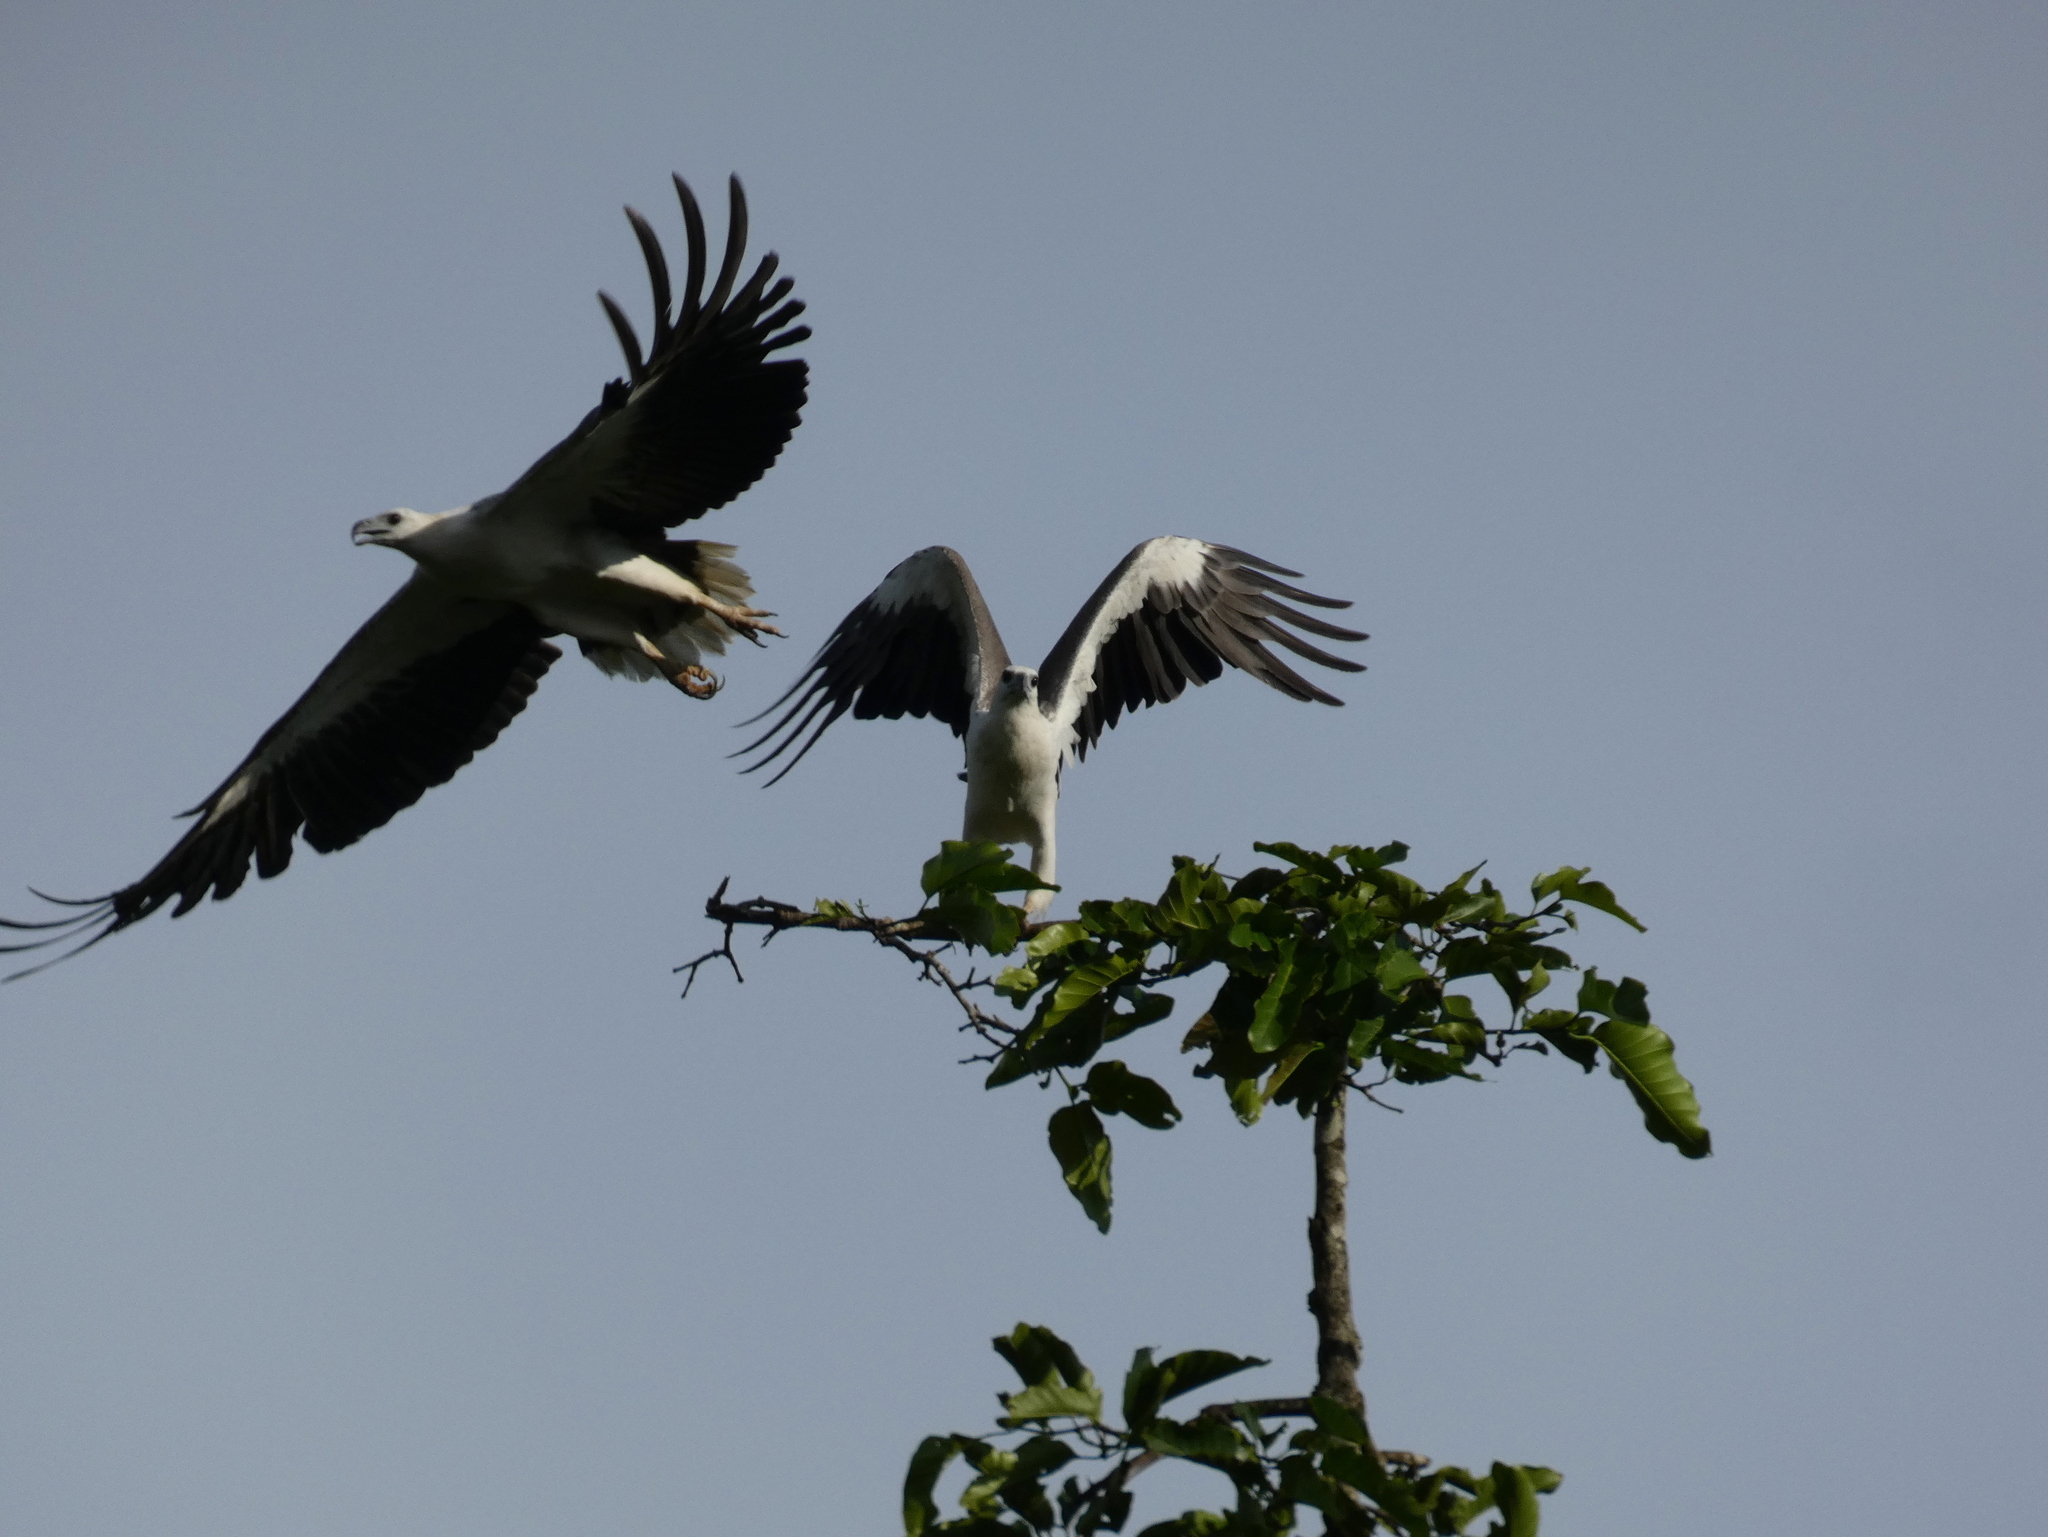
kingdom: Animalia
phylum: Chordata
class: Aves
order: Accipitriformes
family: Accipitridae
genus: Haliaeetus
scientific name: Haliaeetus leucogaster
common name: White-bellied sea eagle
